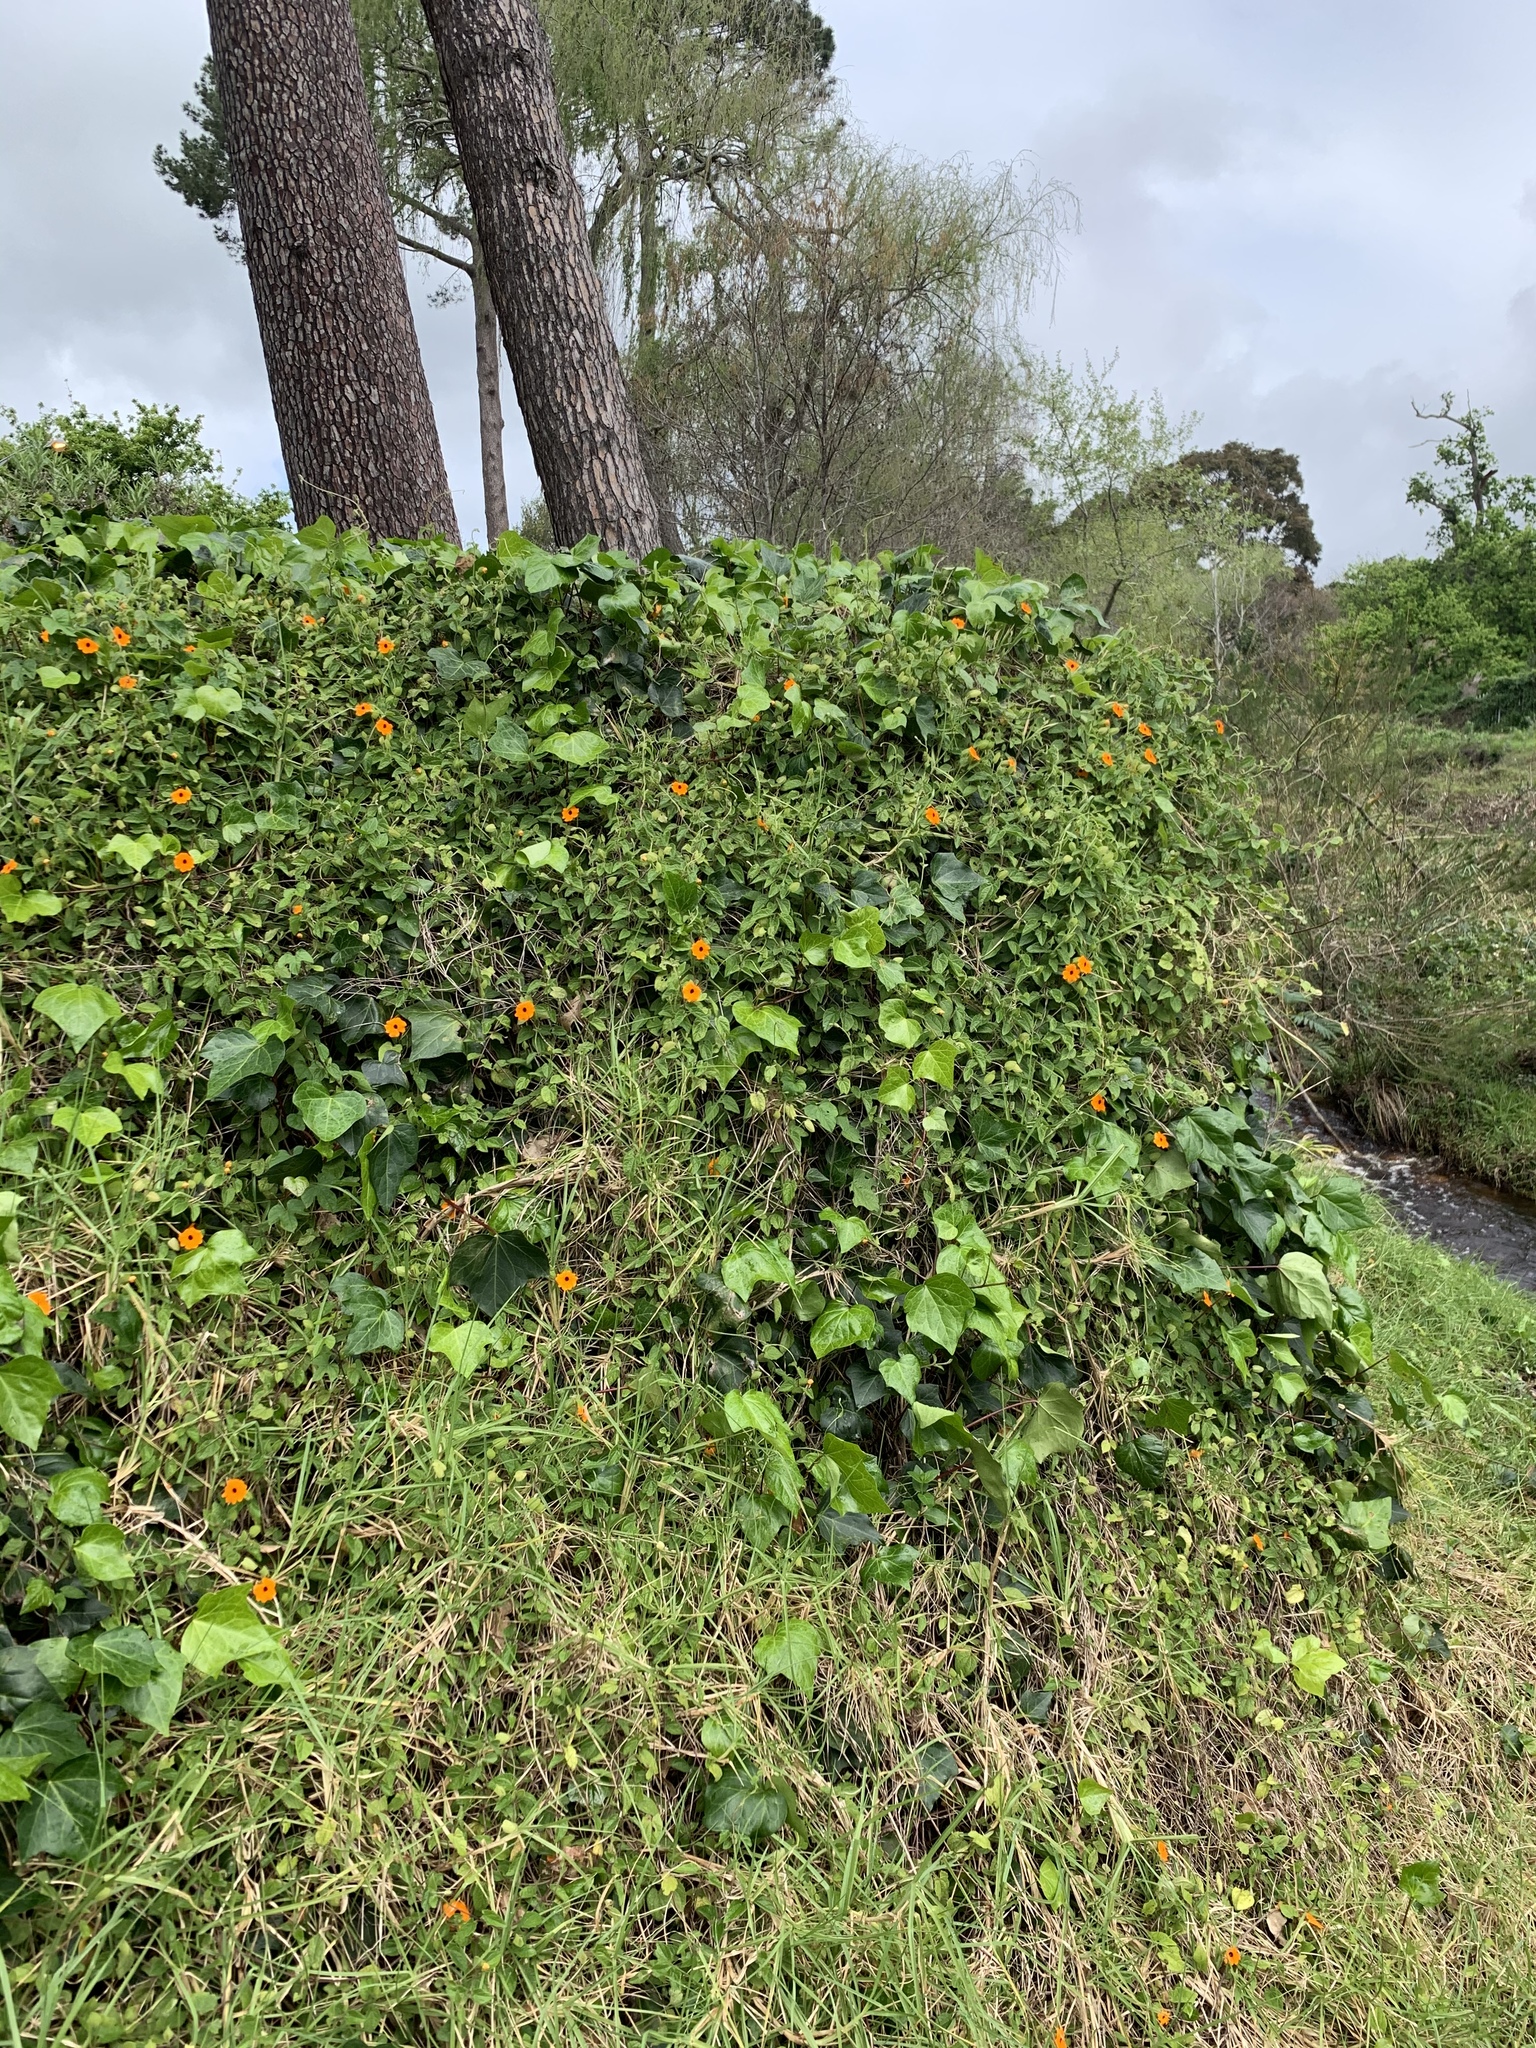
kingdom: Plantae
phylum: Tracheophyta
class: Magnoliopsida
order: Lamiales
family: Acanthaceae
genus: Thunbergia
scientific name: Thunbergia alata
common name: Blackeyed susan vine
